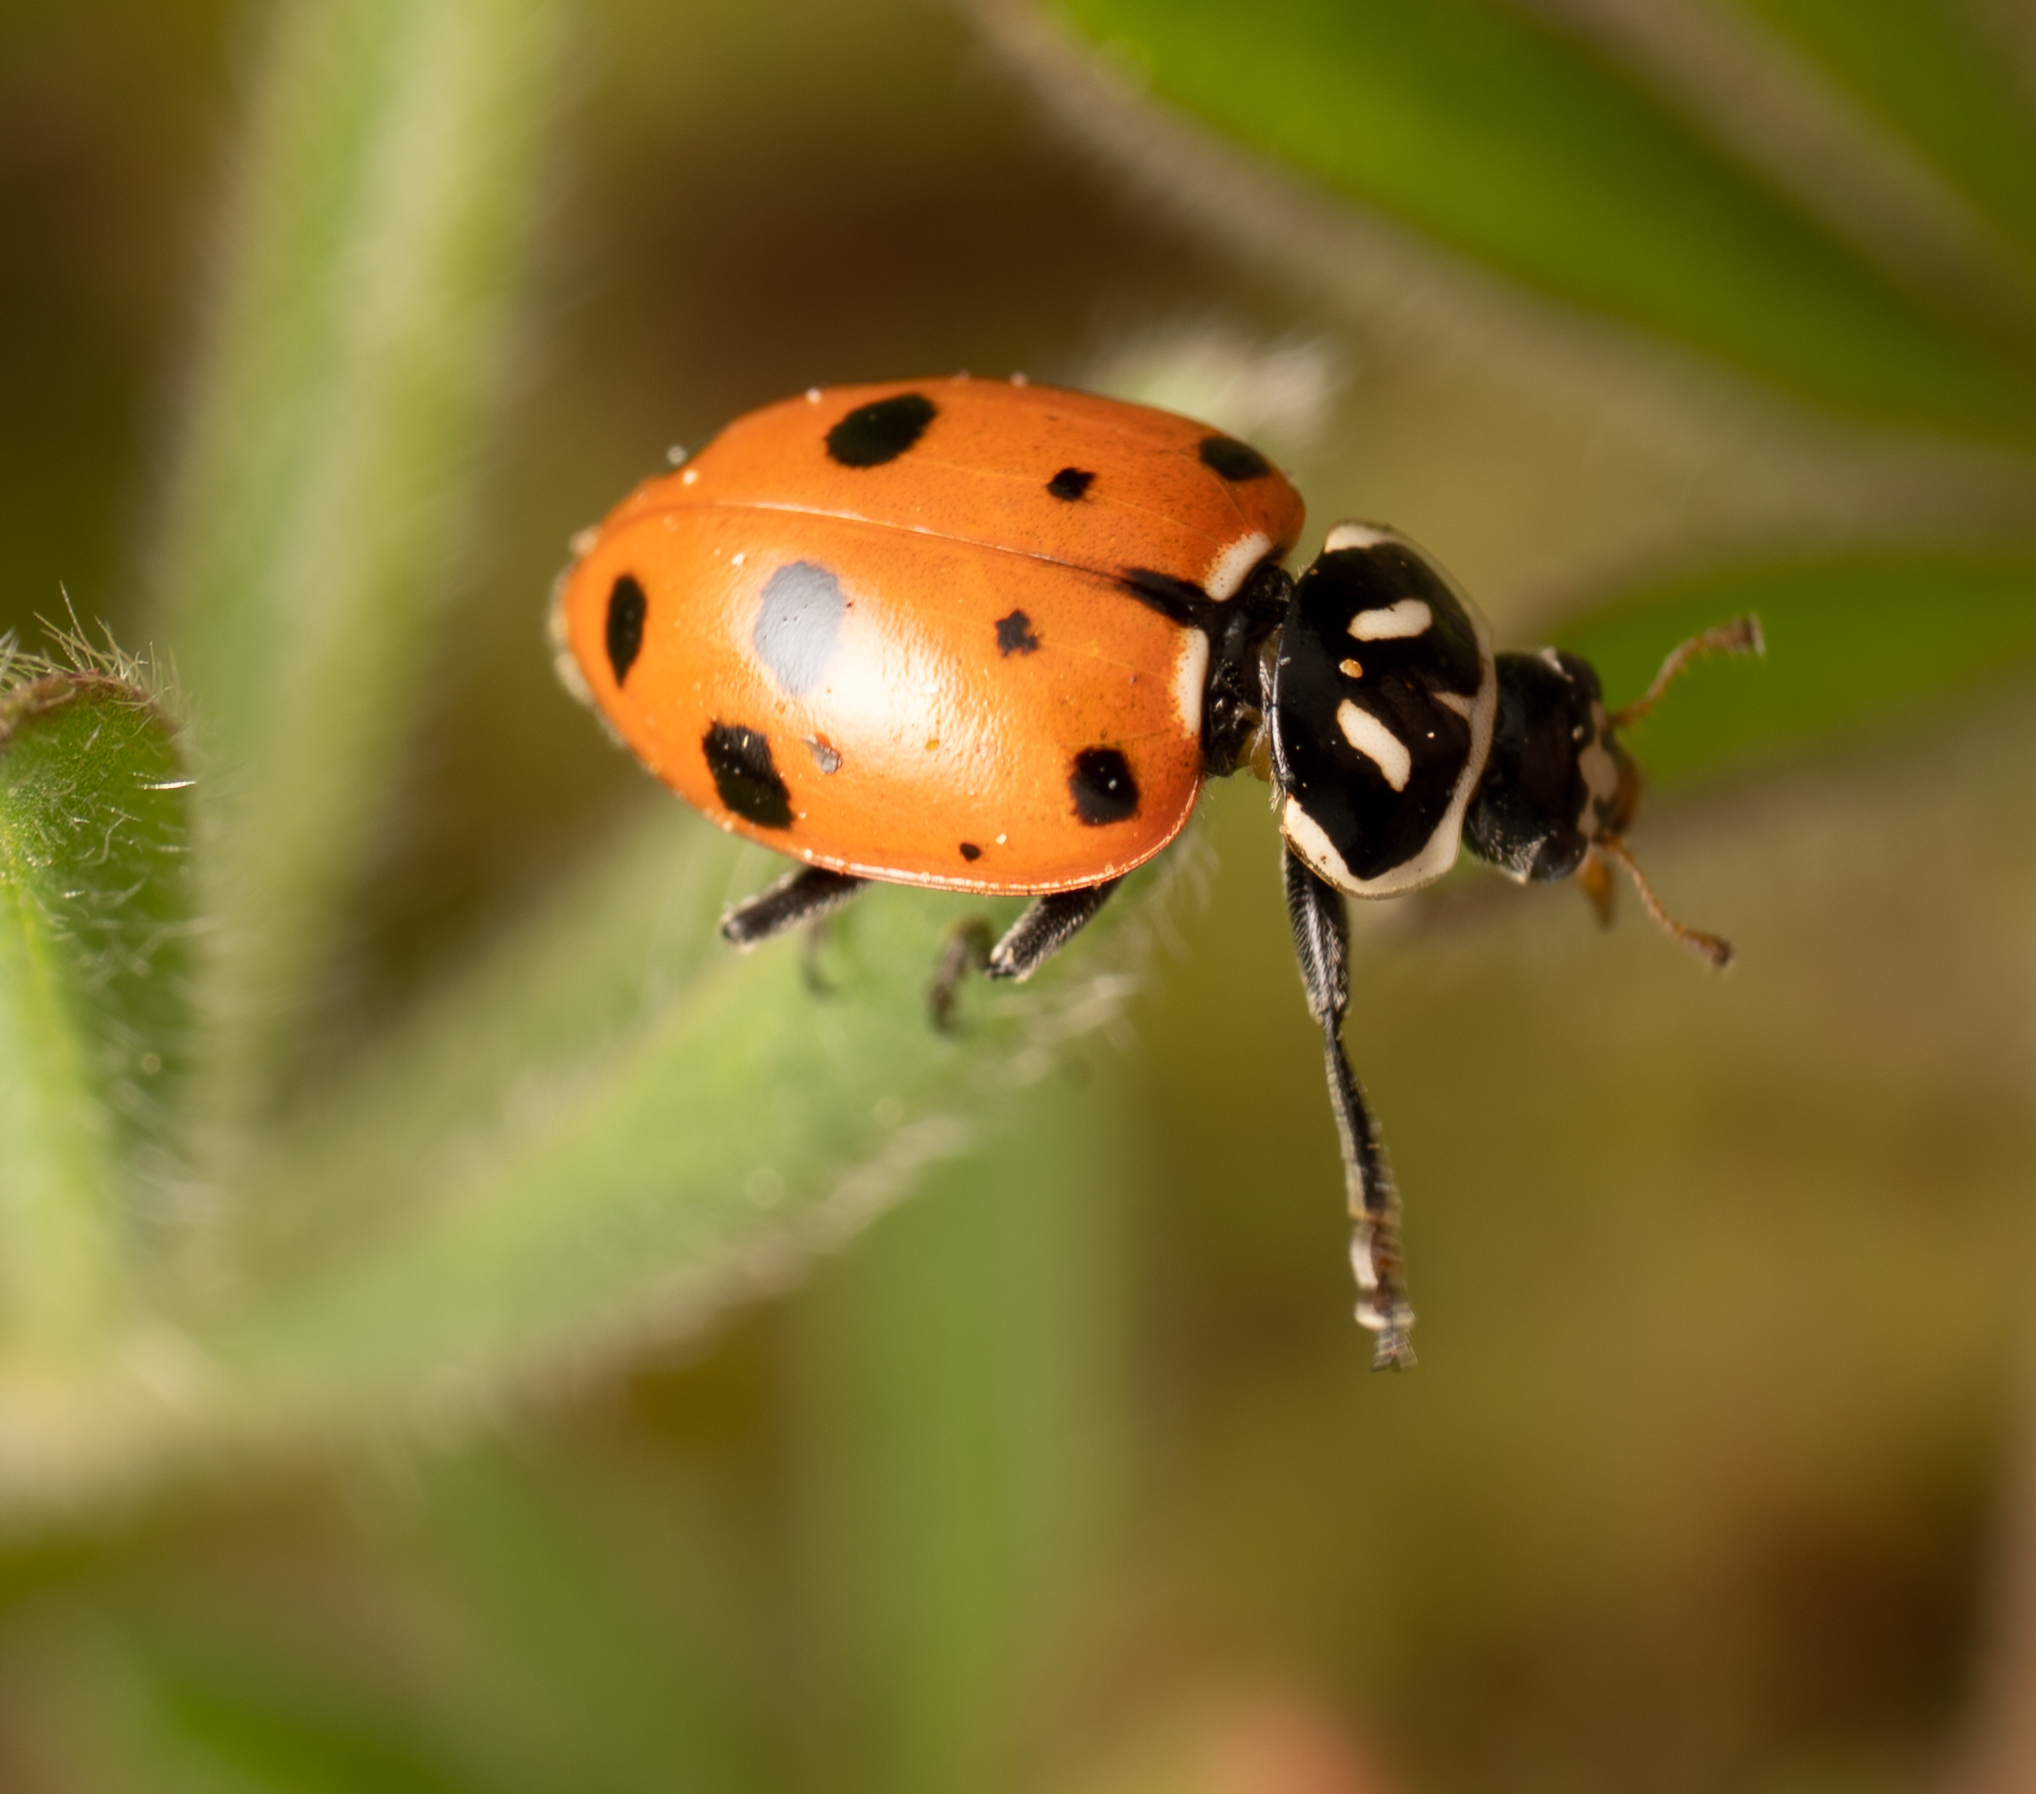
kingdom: Animalia
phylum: Arthropoda
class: Insecta
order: Coleoptera
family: Coccinellidae
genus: Hippodamia
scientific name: Hippodamia convergens
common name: Convergent lady beetle
